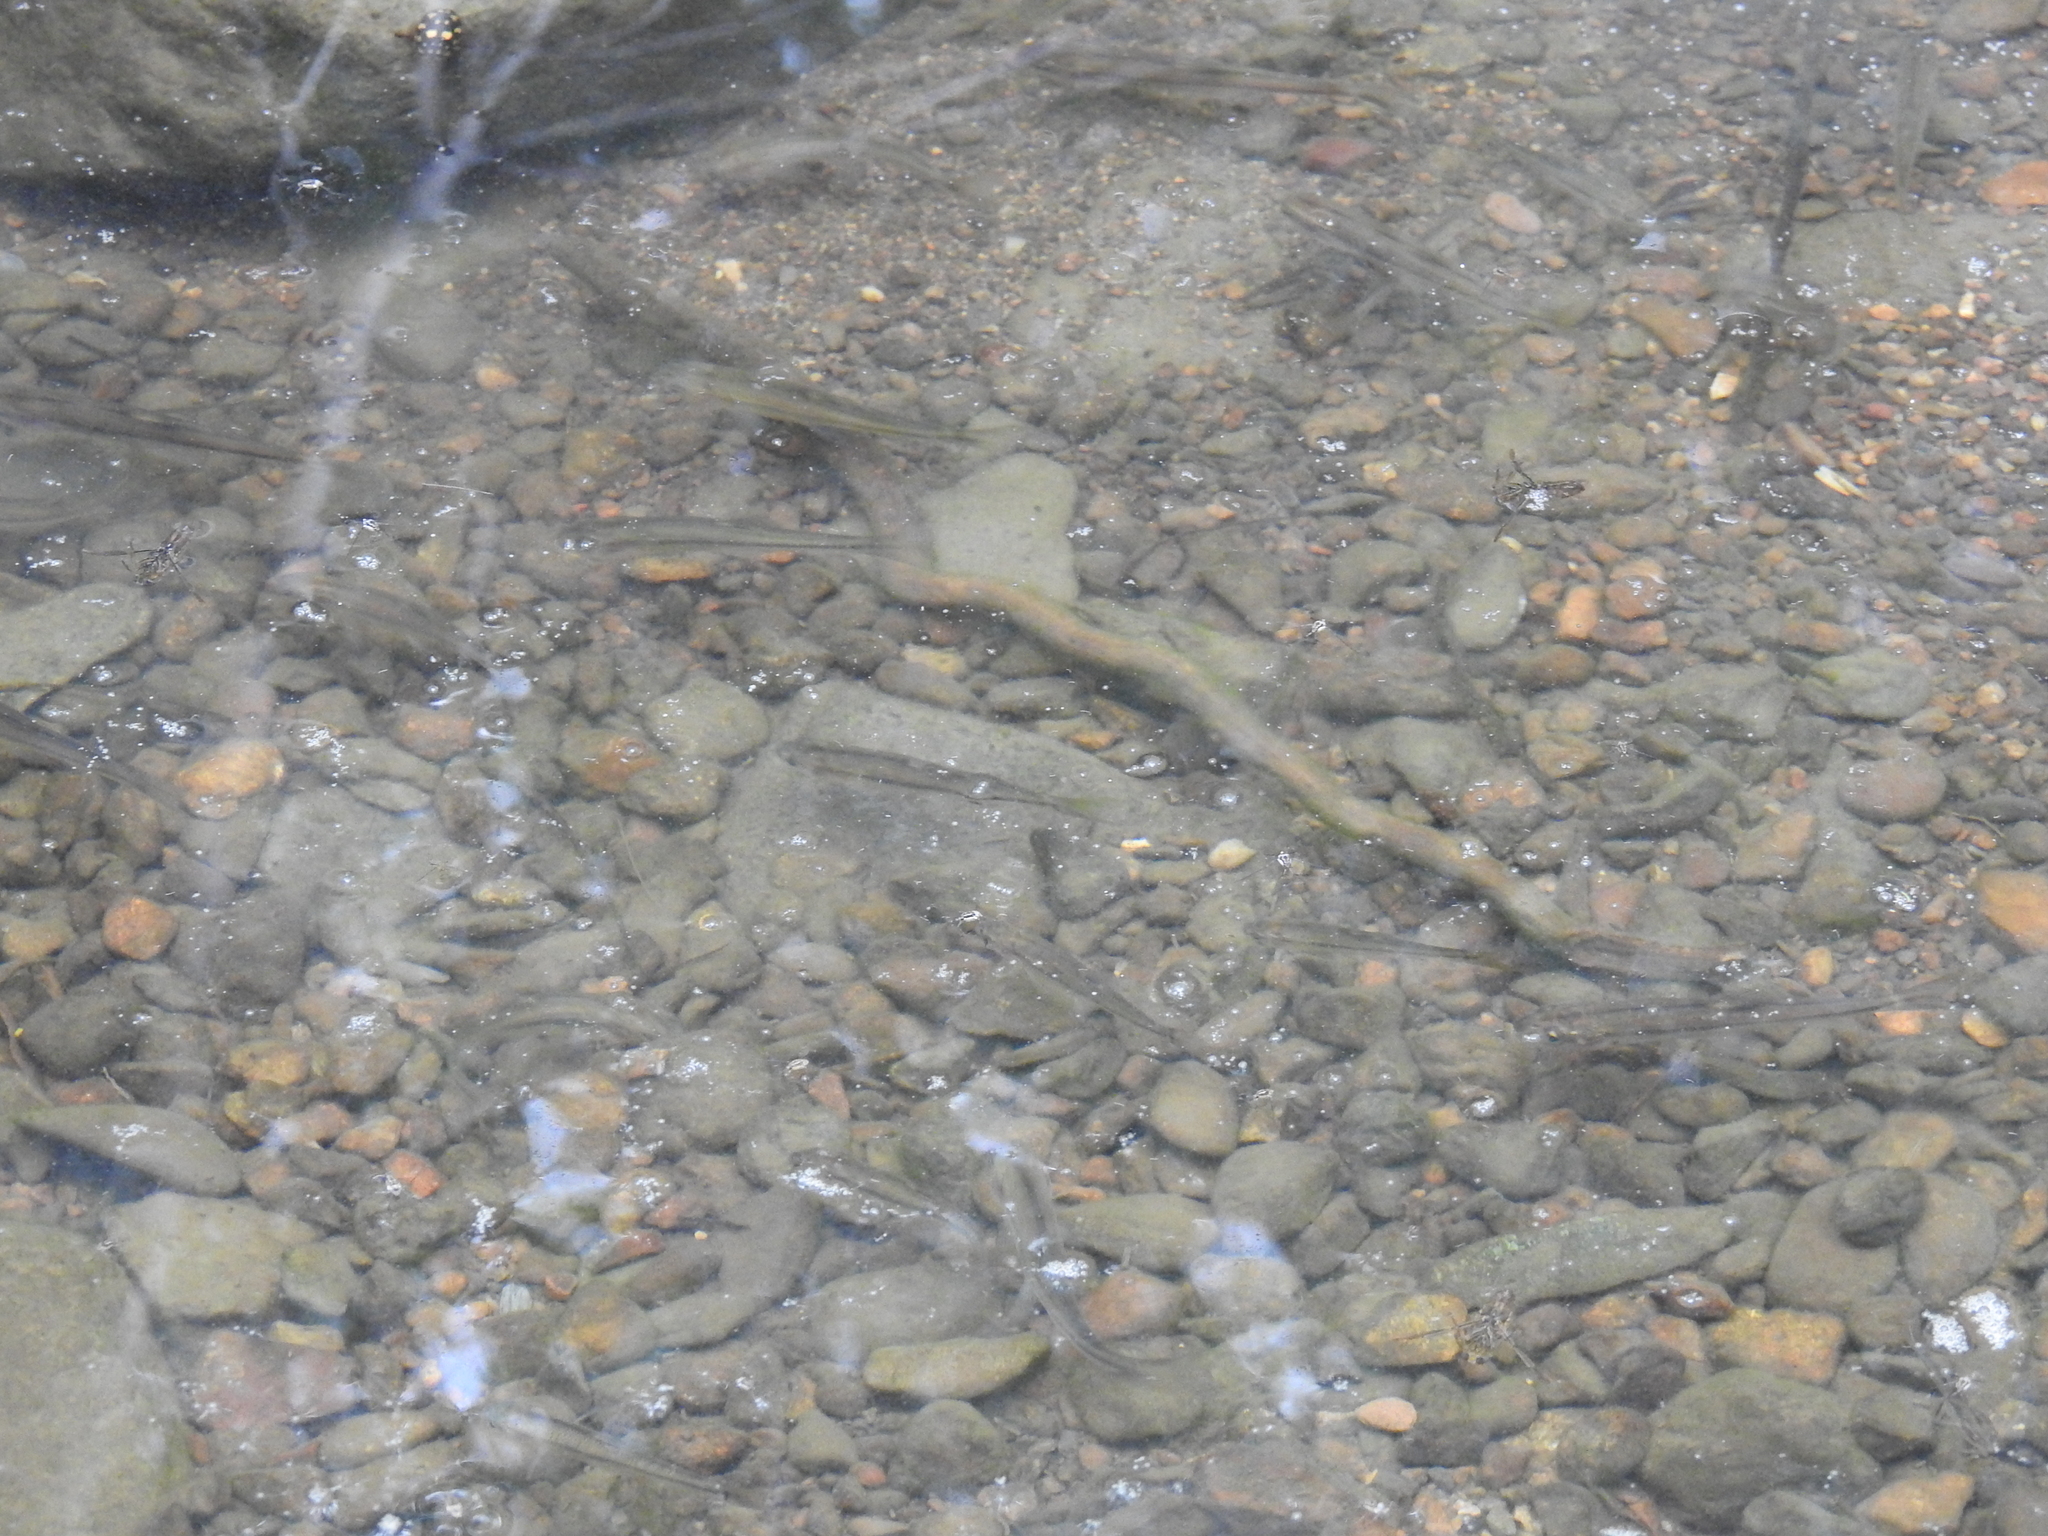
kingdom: Animalia
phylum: Chordata
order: Cypriniformes
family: Cyprinidae
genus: Agosia
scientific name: Agosia chrysogaster
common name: Longfin dace
